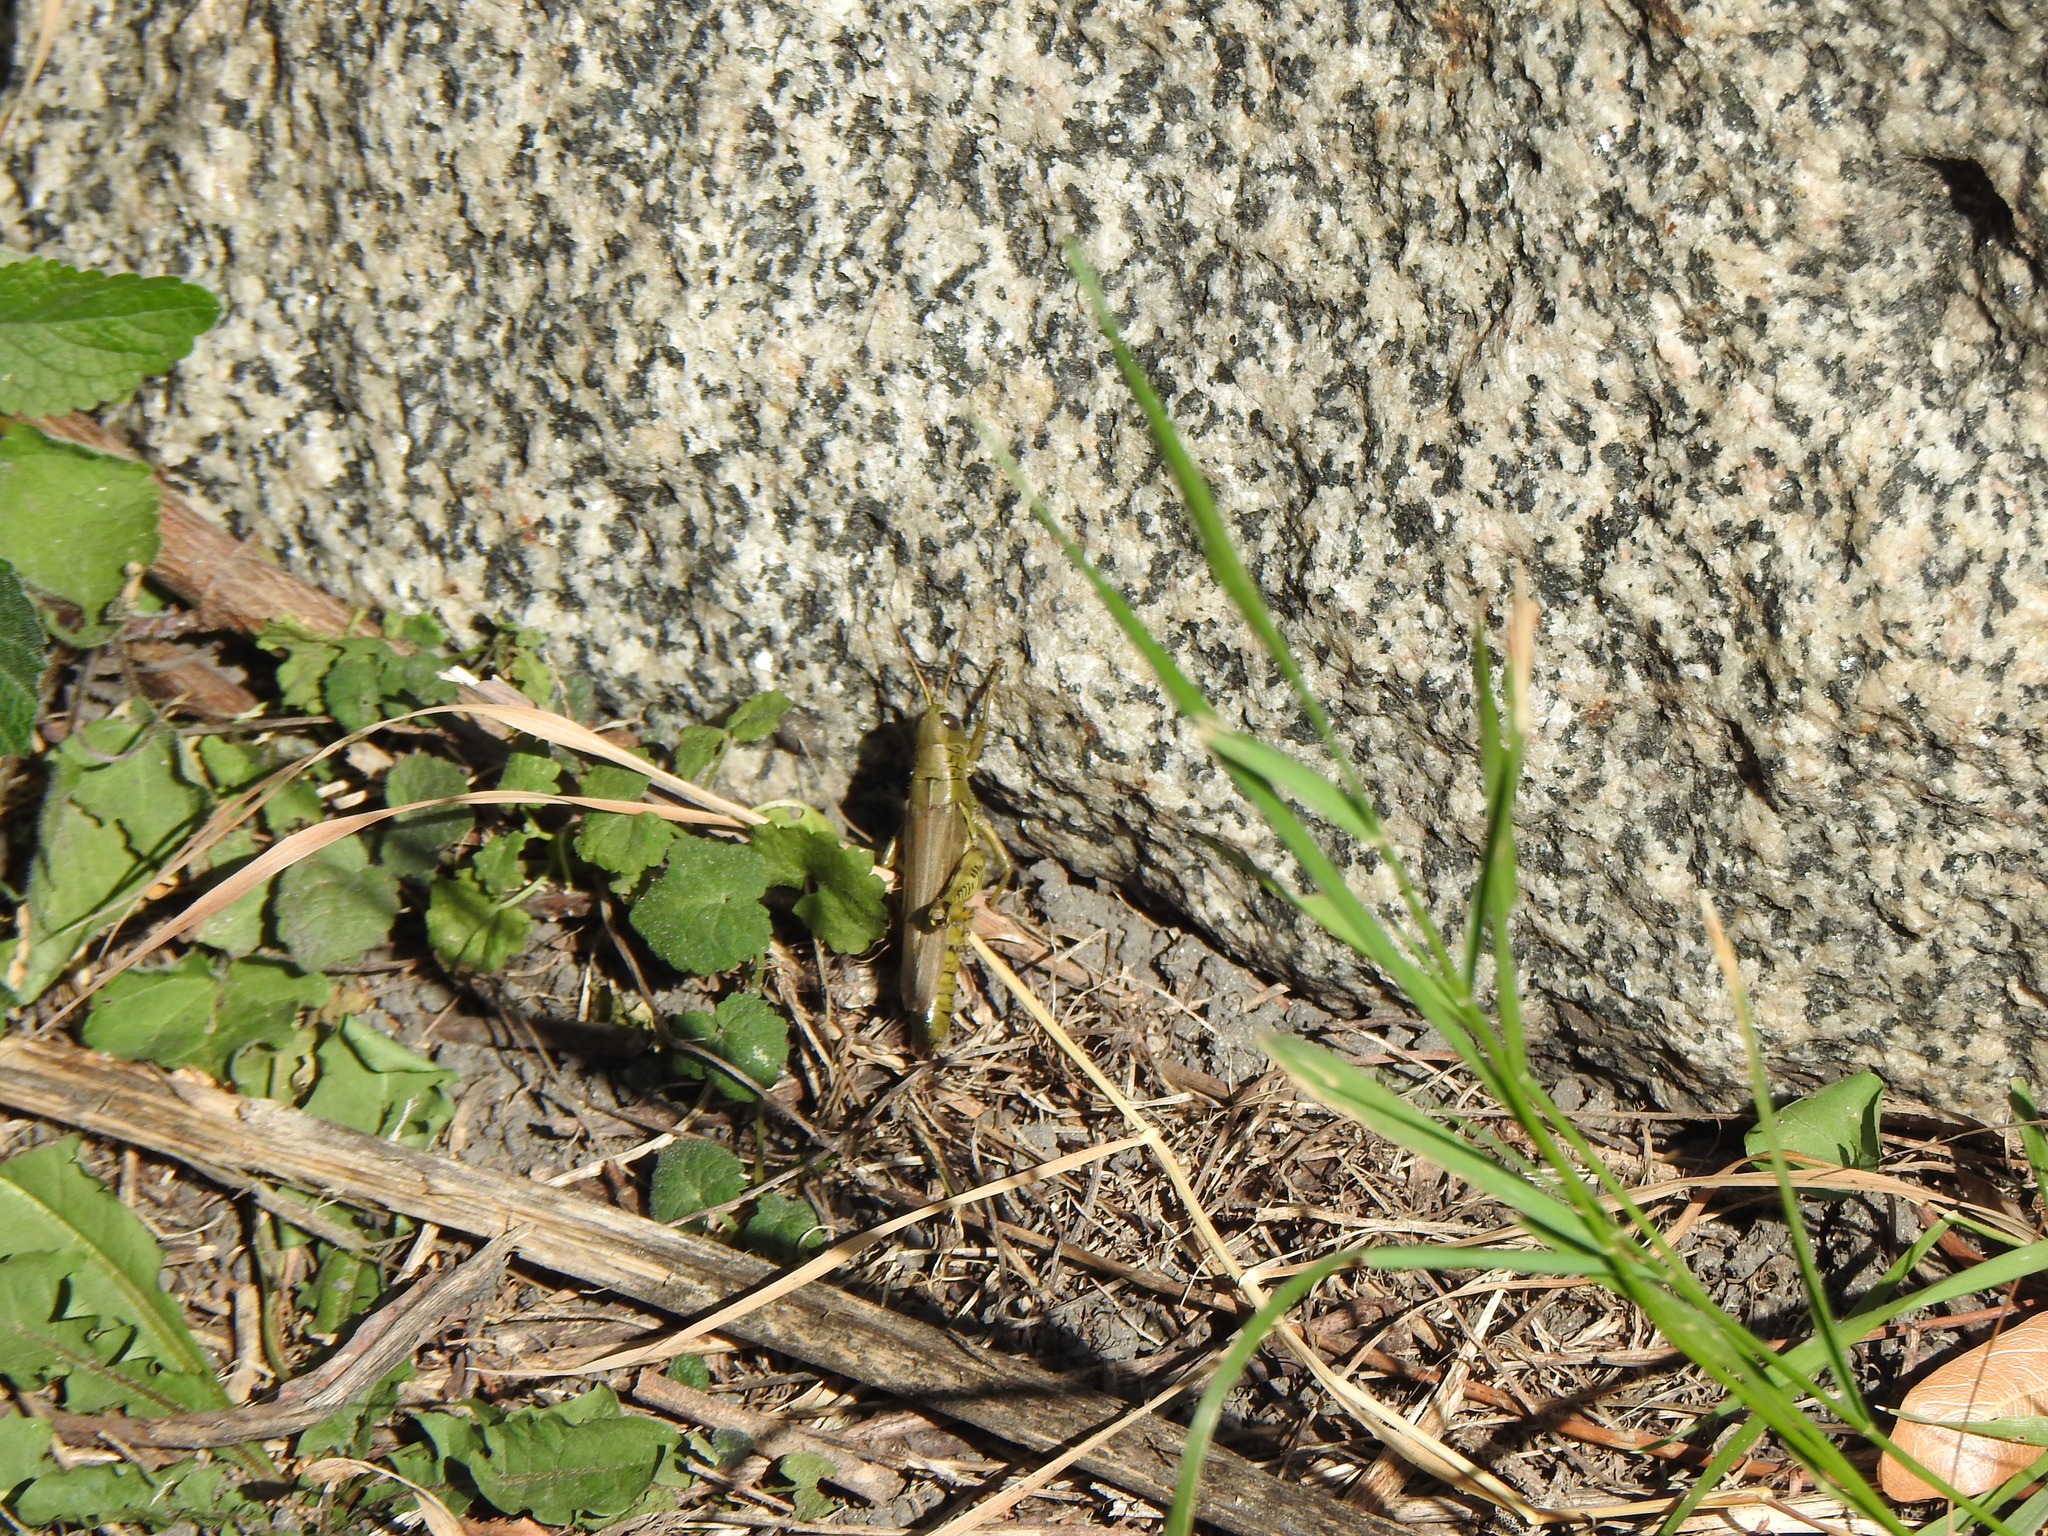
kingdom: Animalia
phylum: Arthropoda
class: Insecta
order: Orthoptera
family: Acrididae
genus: Melanoplus
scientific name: Melanoplus differentialis
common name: Differential grasshopper
